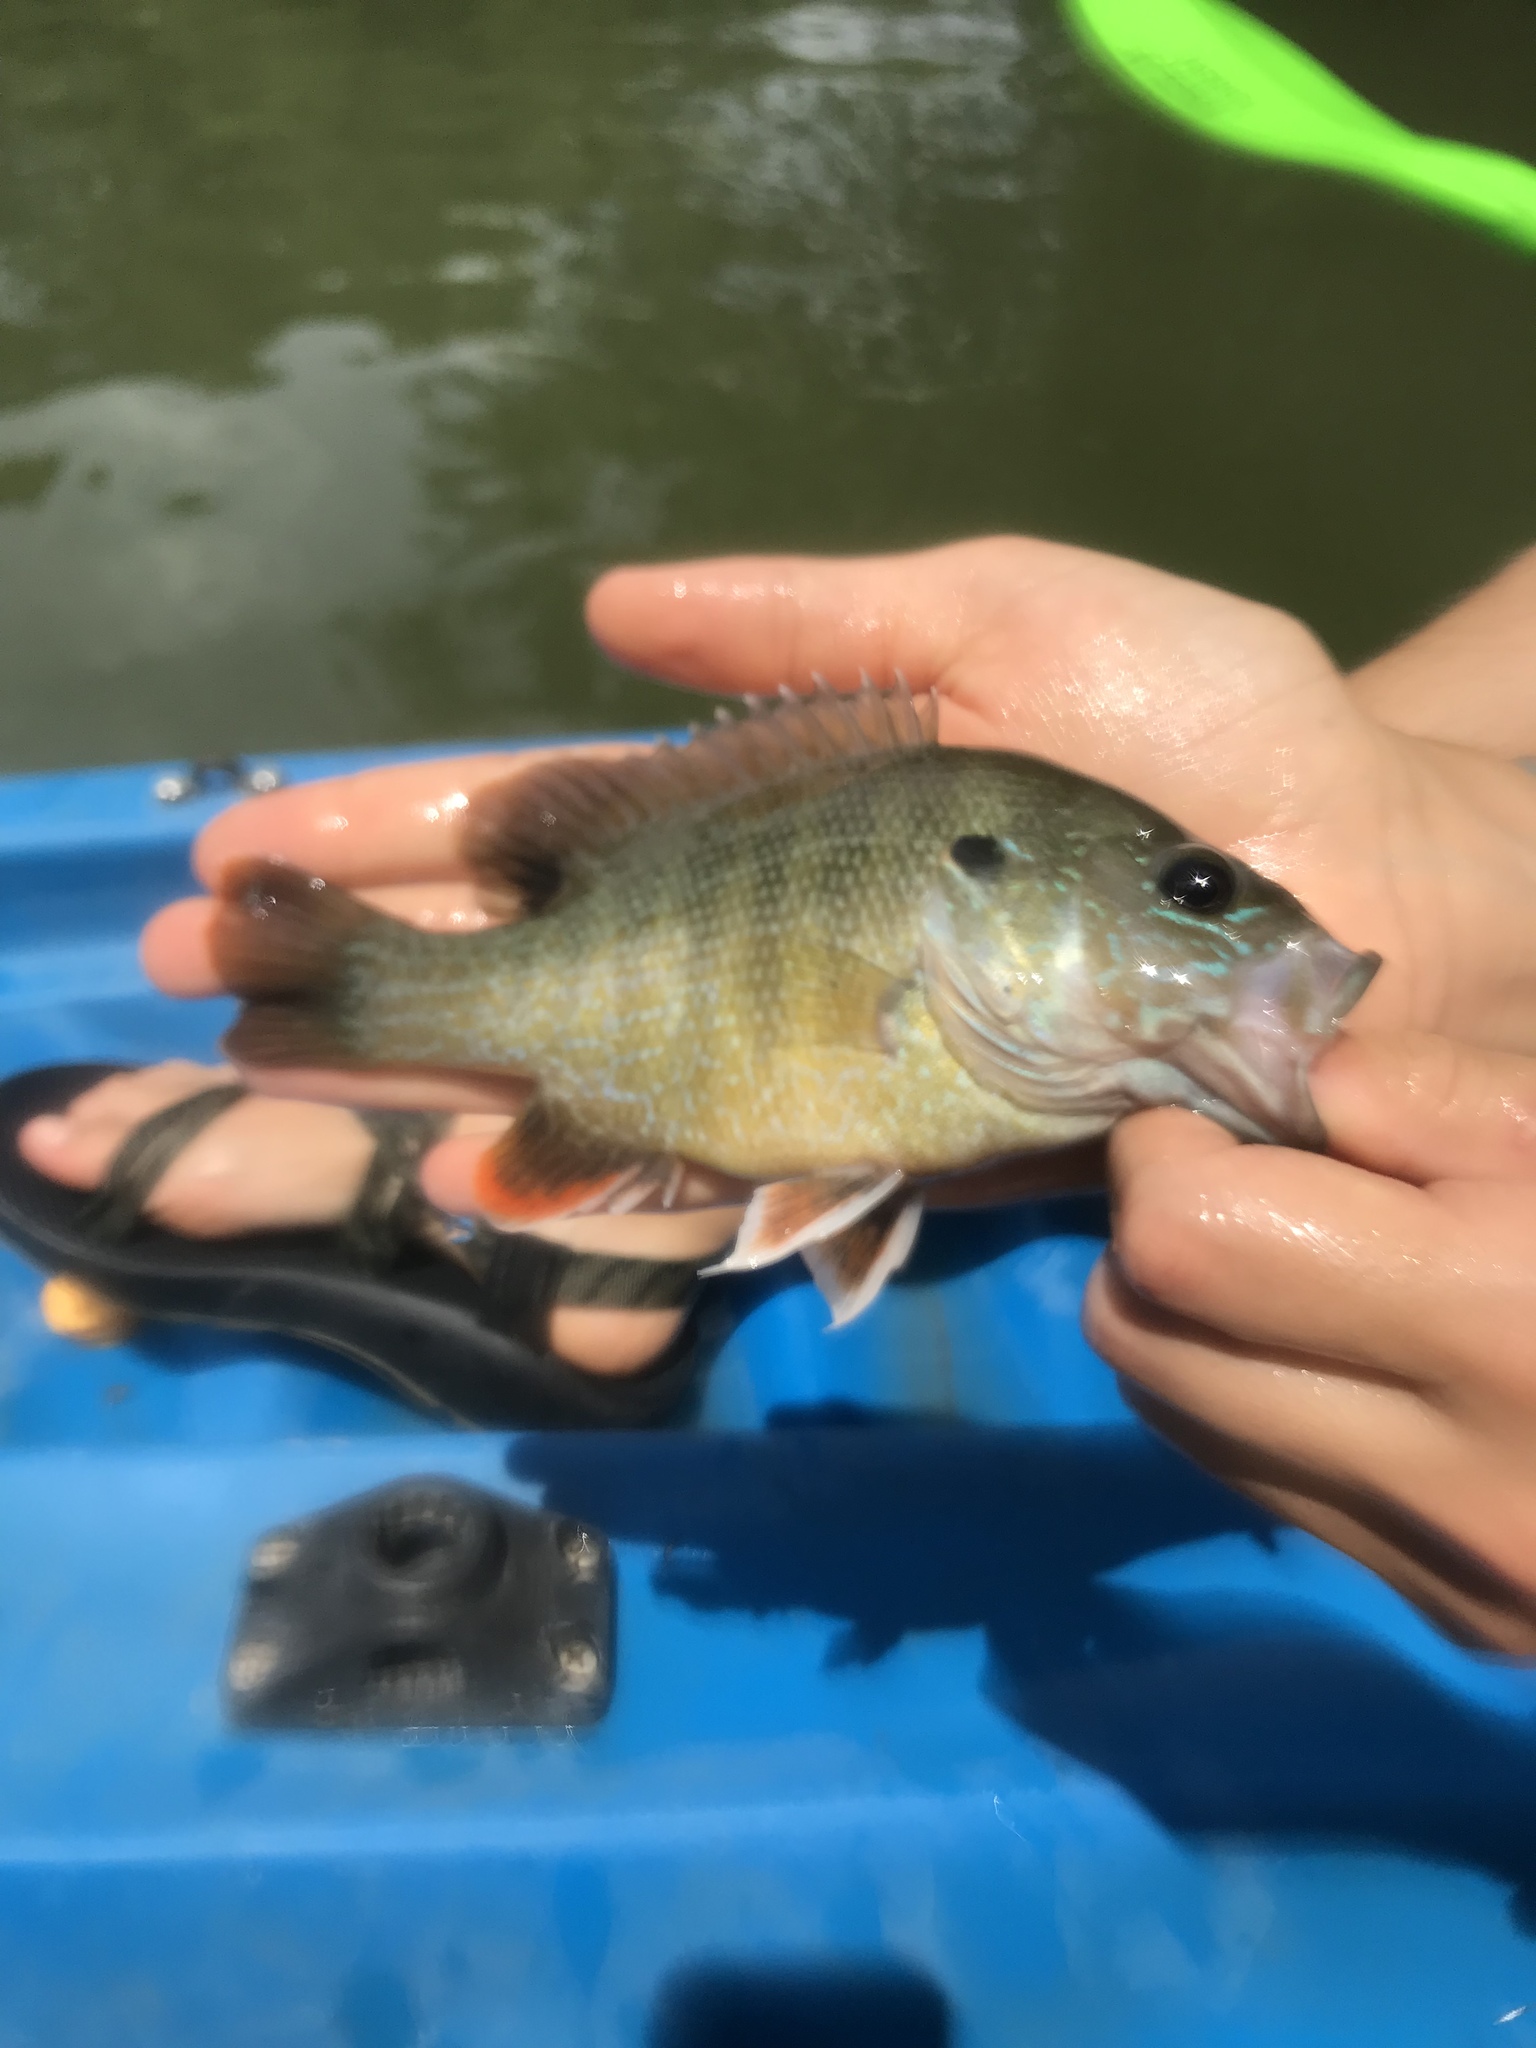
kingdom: Animalia
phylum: Chordata
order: Perciformes
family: Centrarchidae
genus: Lepomis
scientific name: Lepomis cyanellus
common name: Green sunfish
